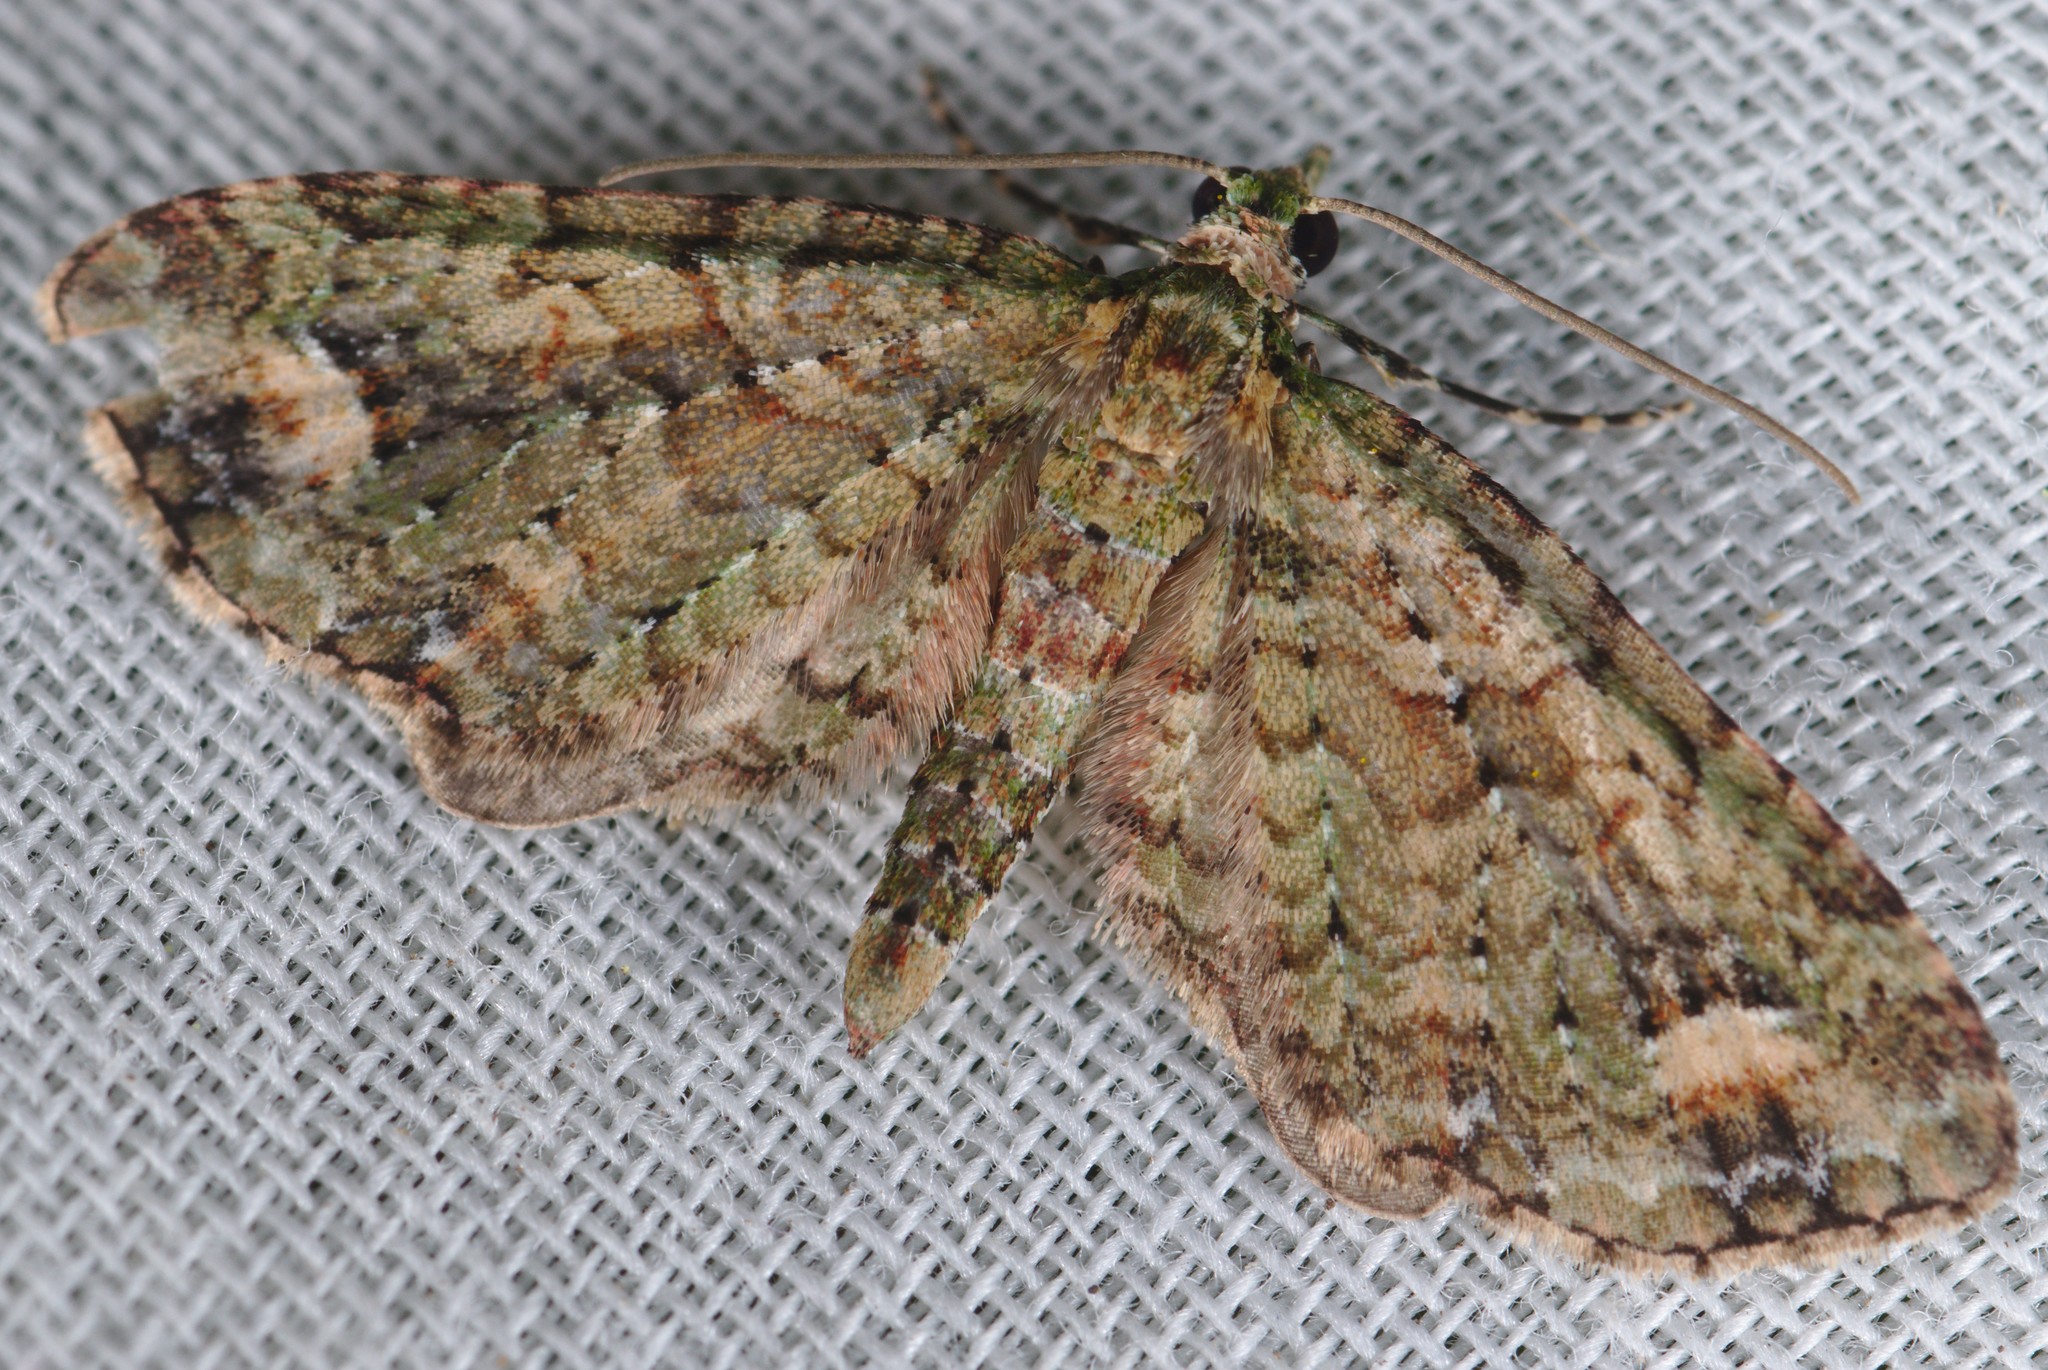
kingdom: Animalia
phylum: Arthropoda
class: Insecta
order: Lepidoptera
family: Geometridae
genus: Idaea
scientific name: Idaea mutanda
